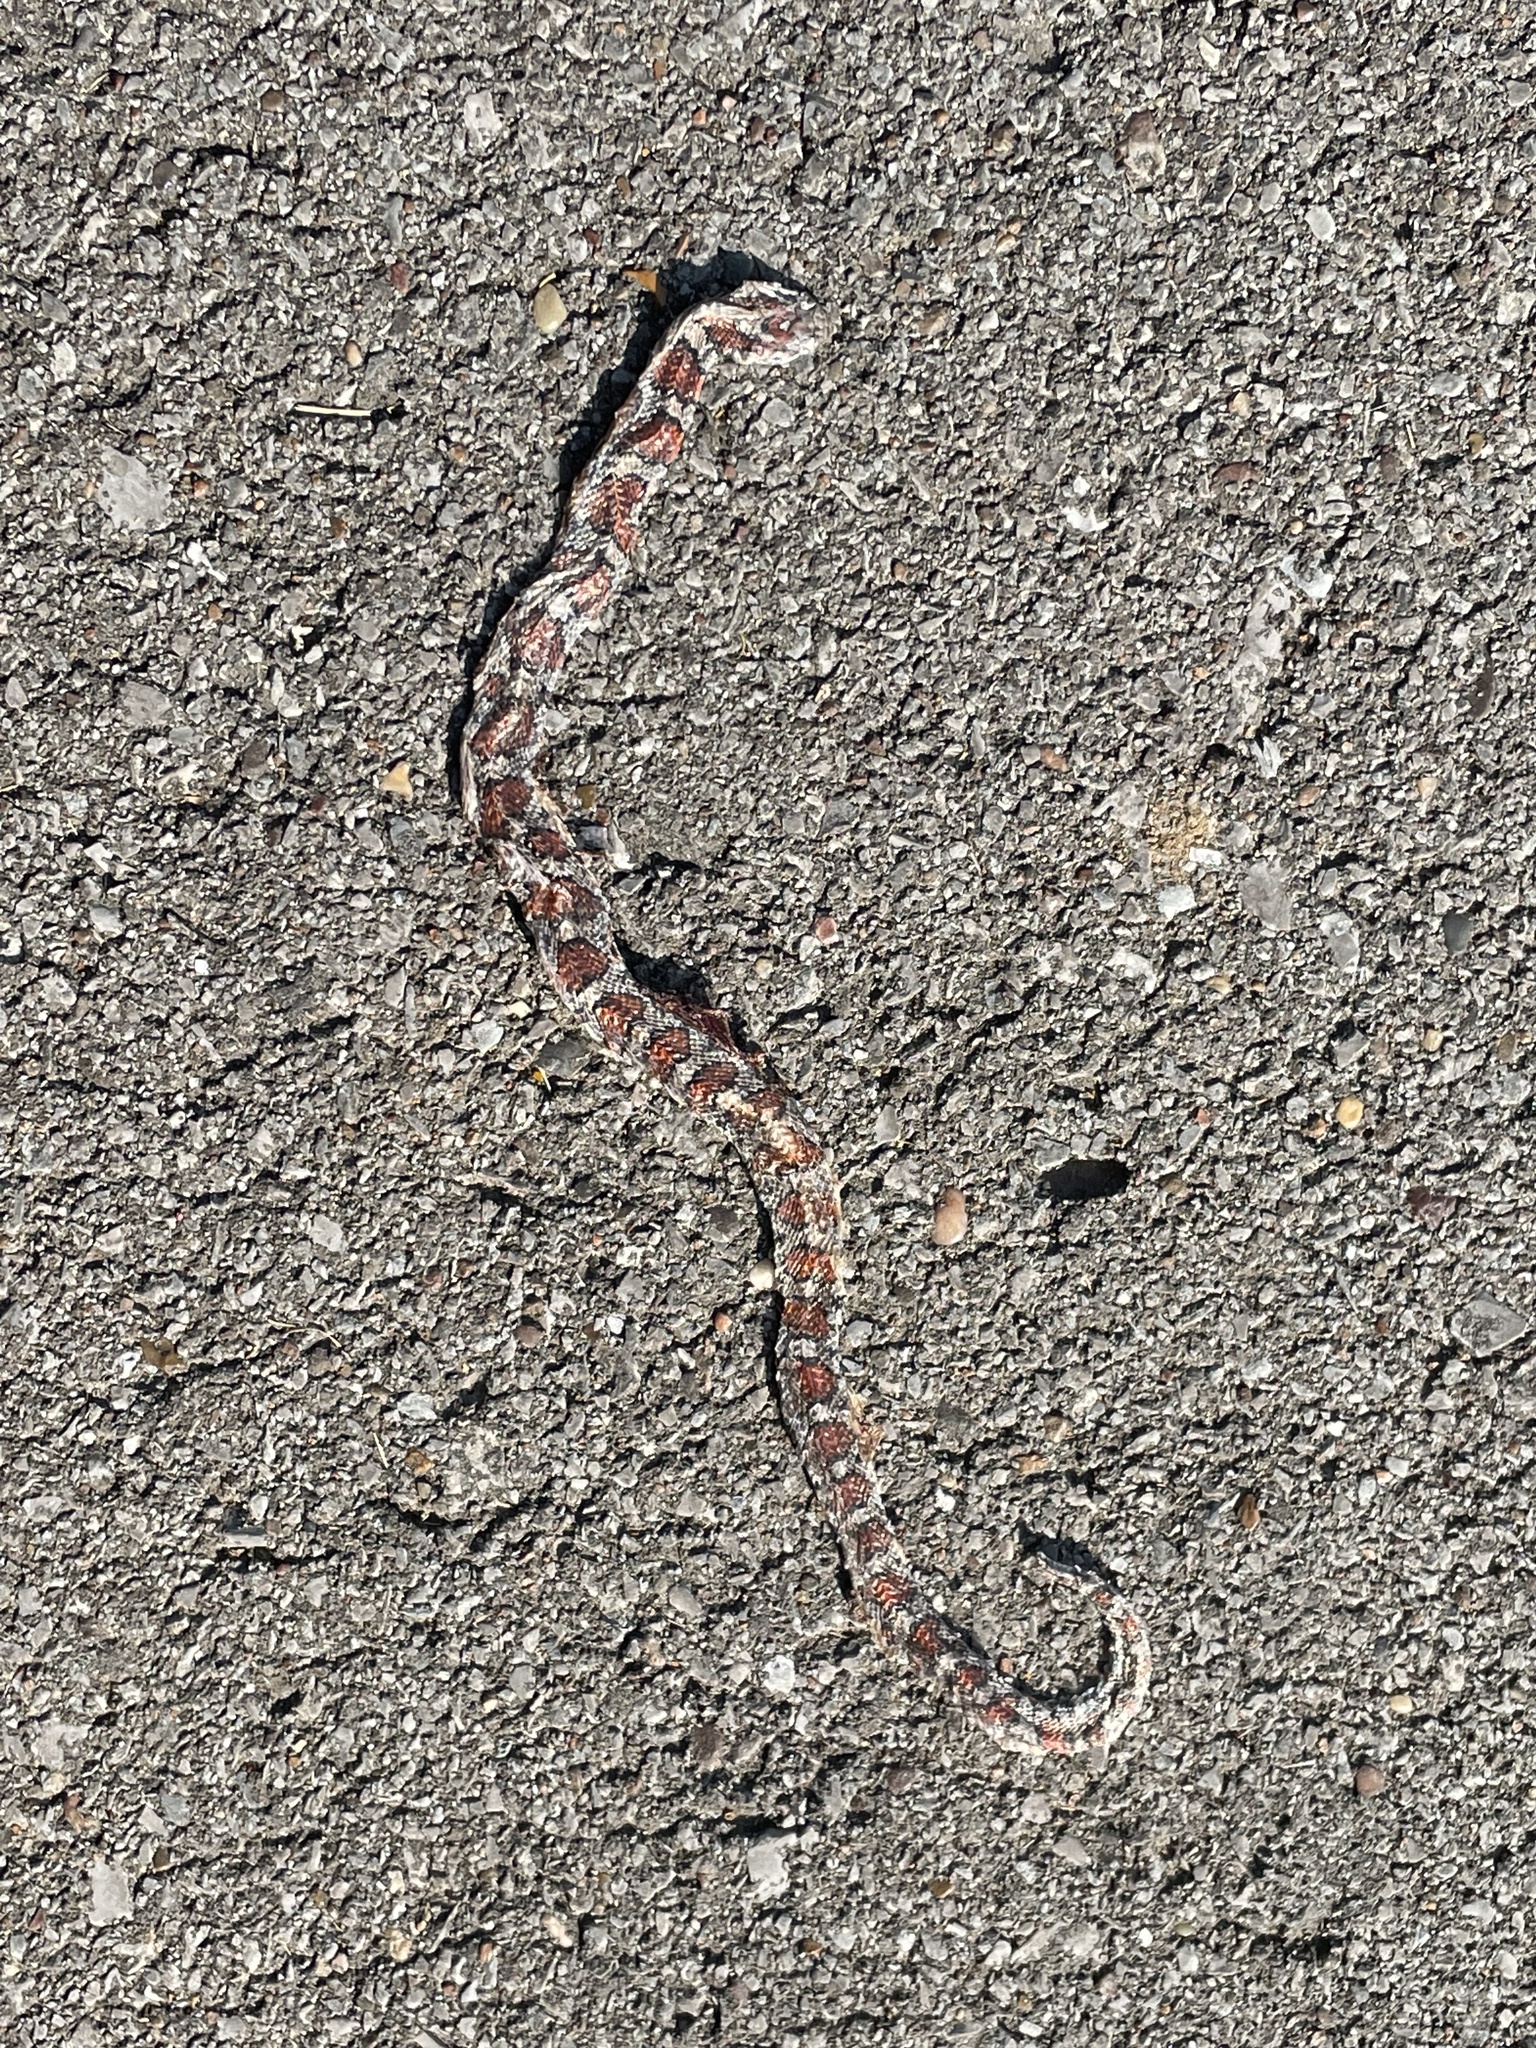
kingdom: Animalia
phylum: Chordata
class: Squamata
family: Colubridae
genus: Lampropeltis
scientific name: Lampropeltis triangulum
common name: Eastern milksnake
